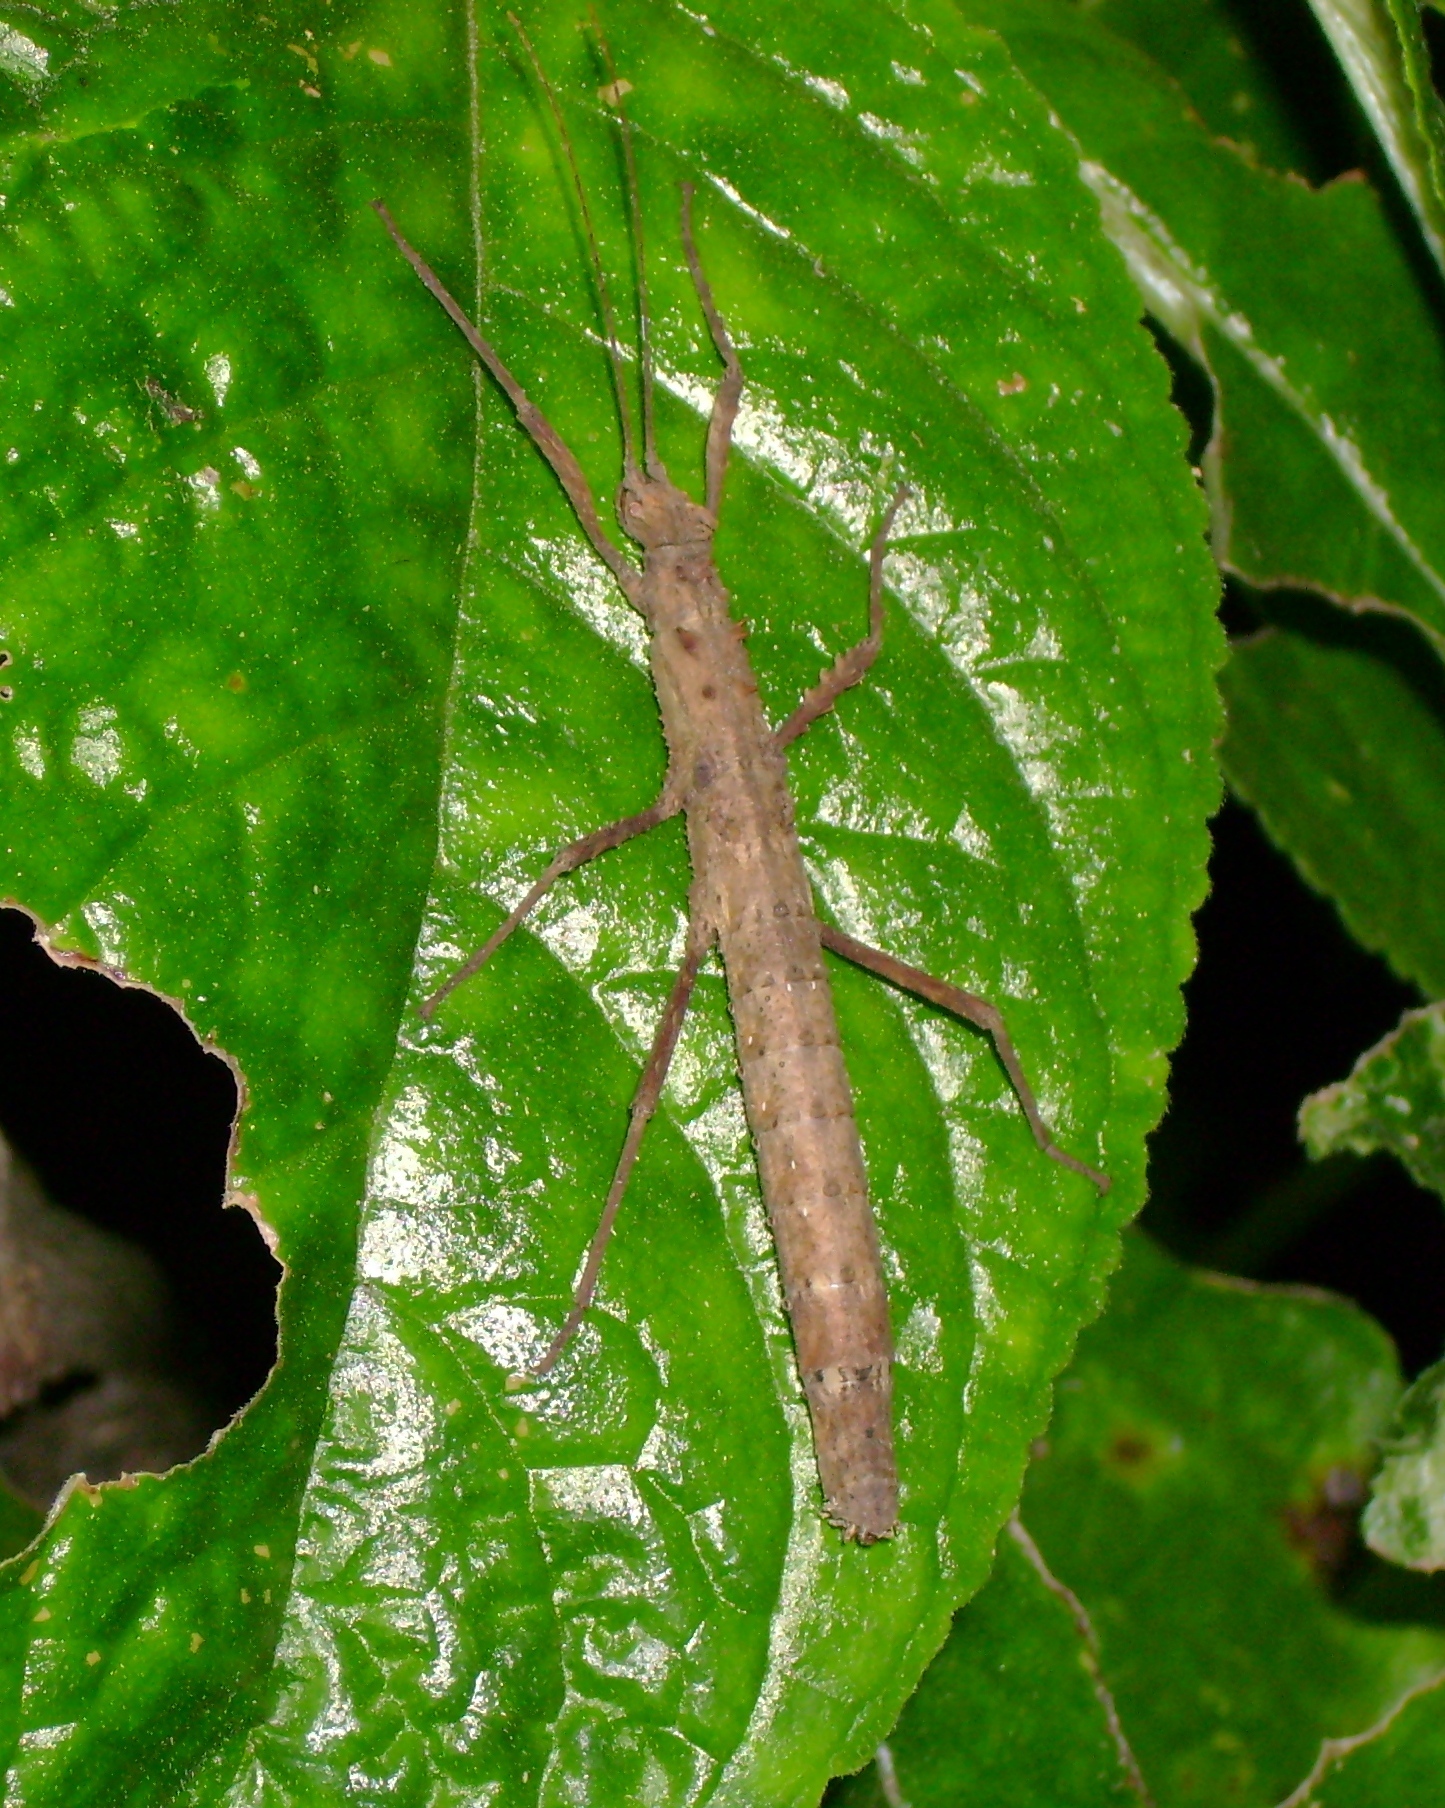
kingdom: Animalia
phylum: Arthropoda
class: Insecta
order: Phasmida
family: Pseudophasmatidae
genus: Creoxylus
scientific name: Creoxylus spinosus
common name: Trinidad log stick insect
